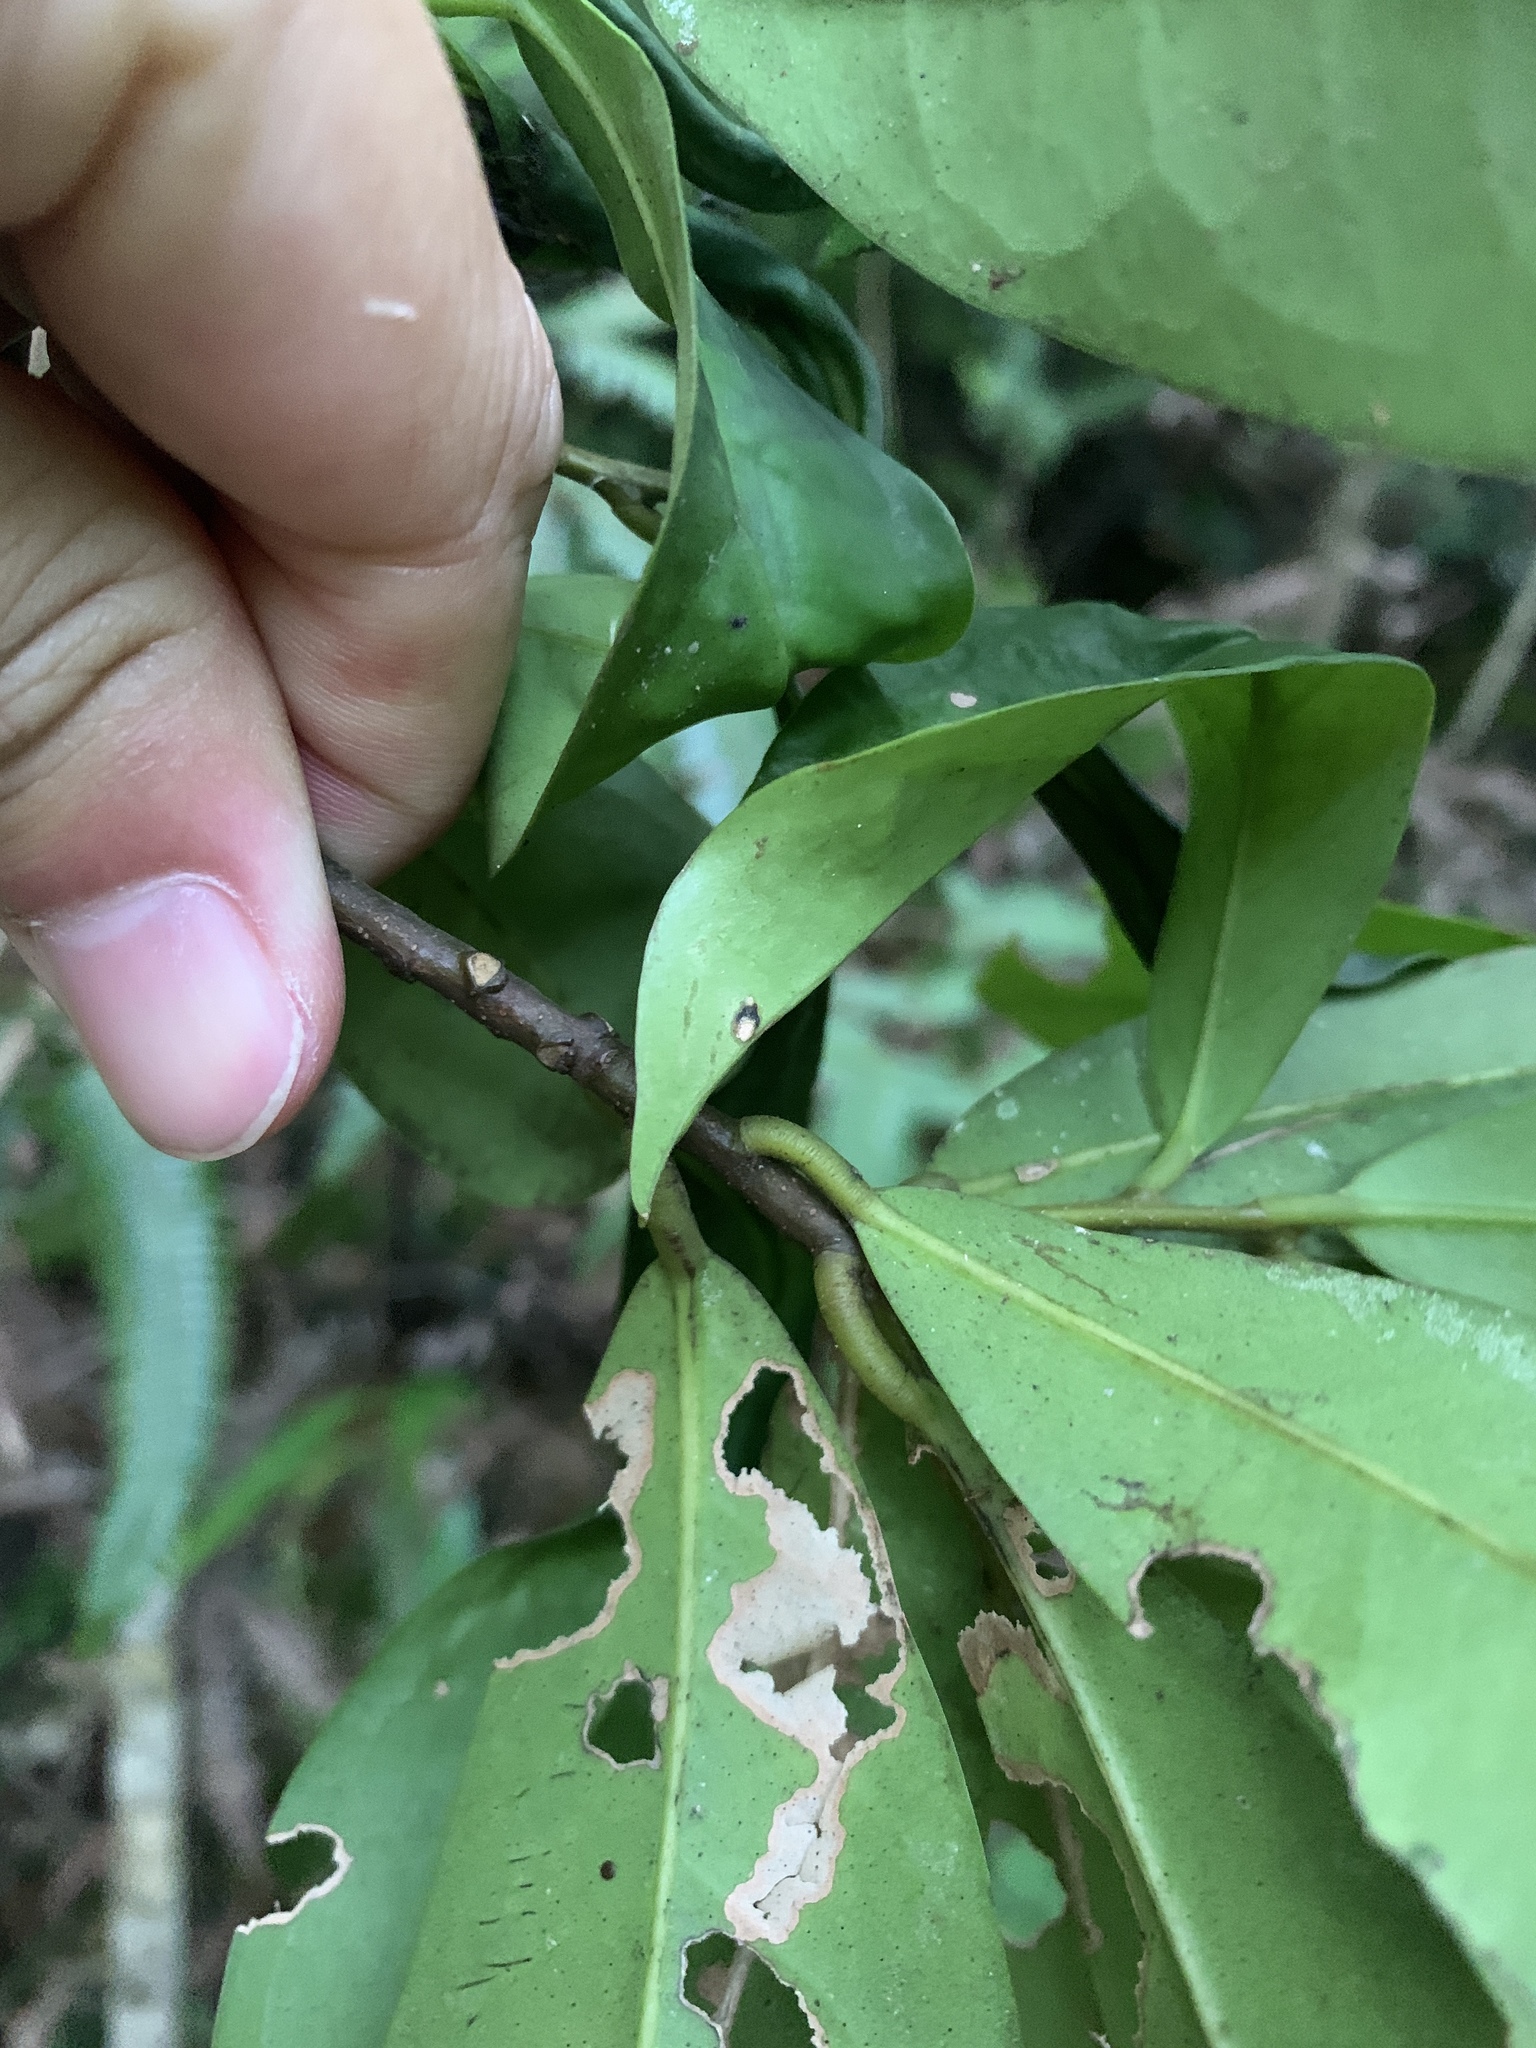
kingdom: Plantae
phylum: Tracheophyta
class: Magnoliopsida
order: Aquifoliales
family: Aquifoliaceae
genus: Ilex
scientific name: Ilex cochinchinensis
